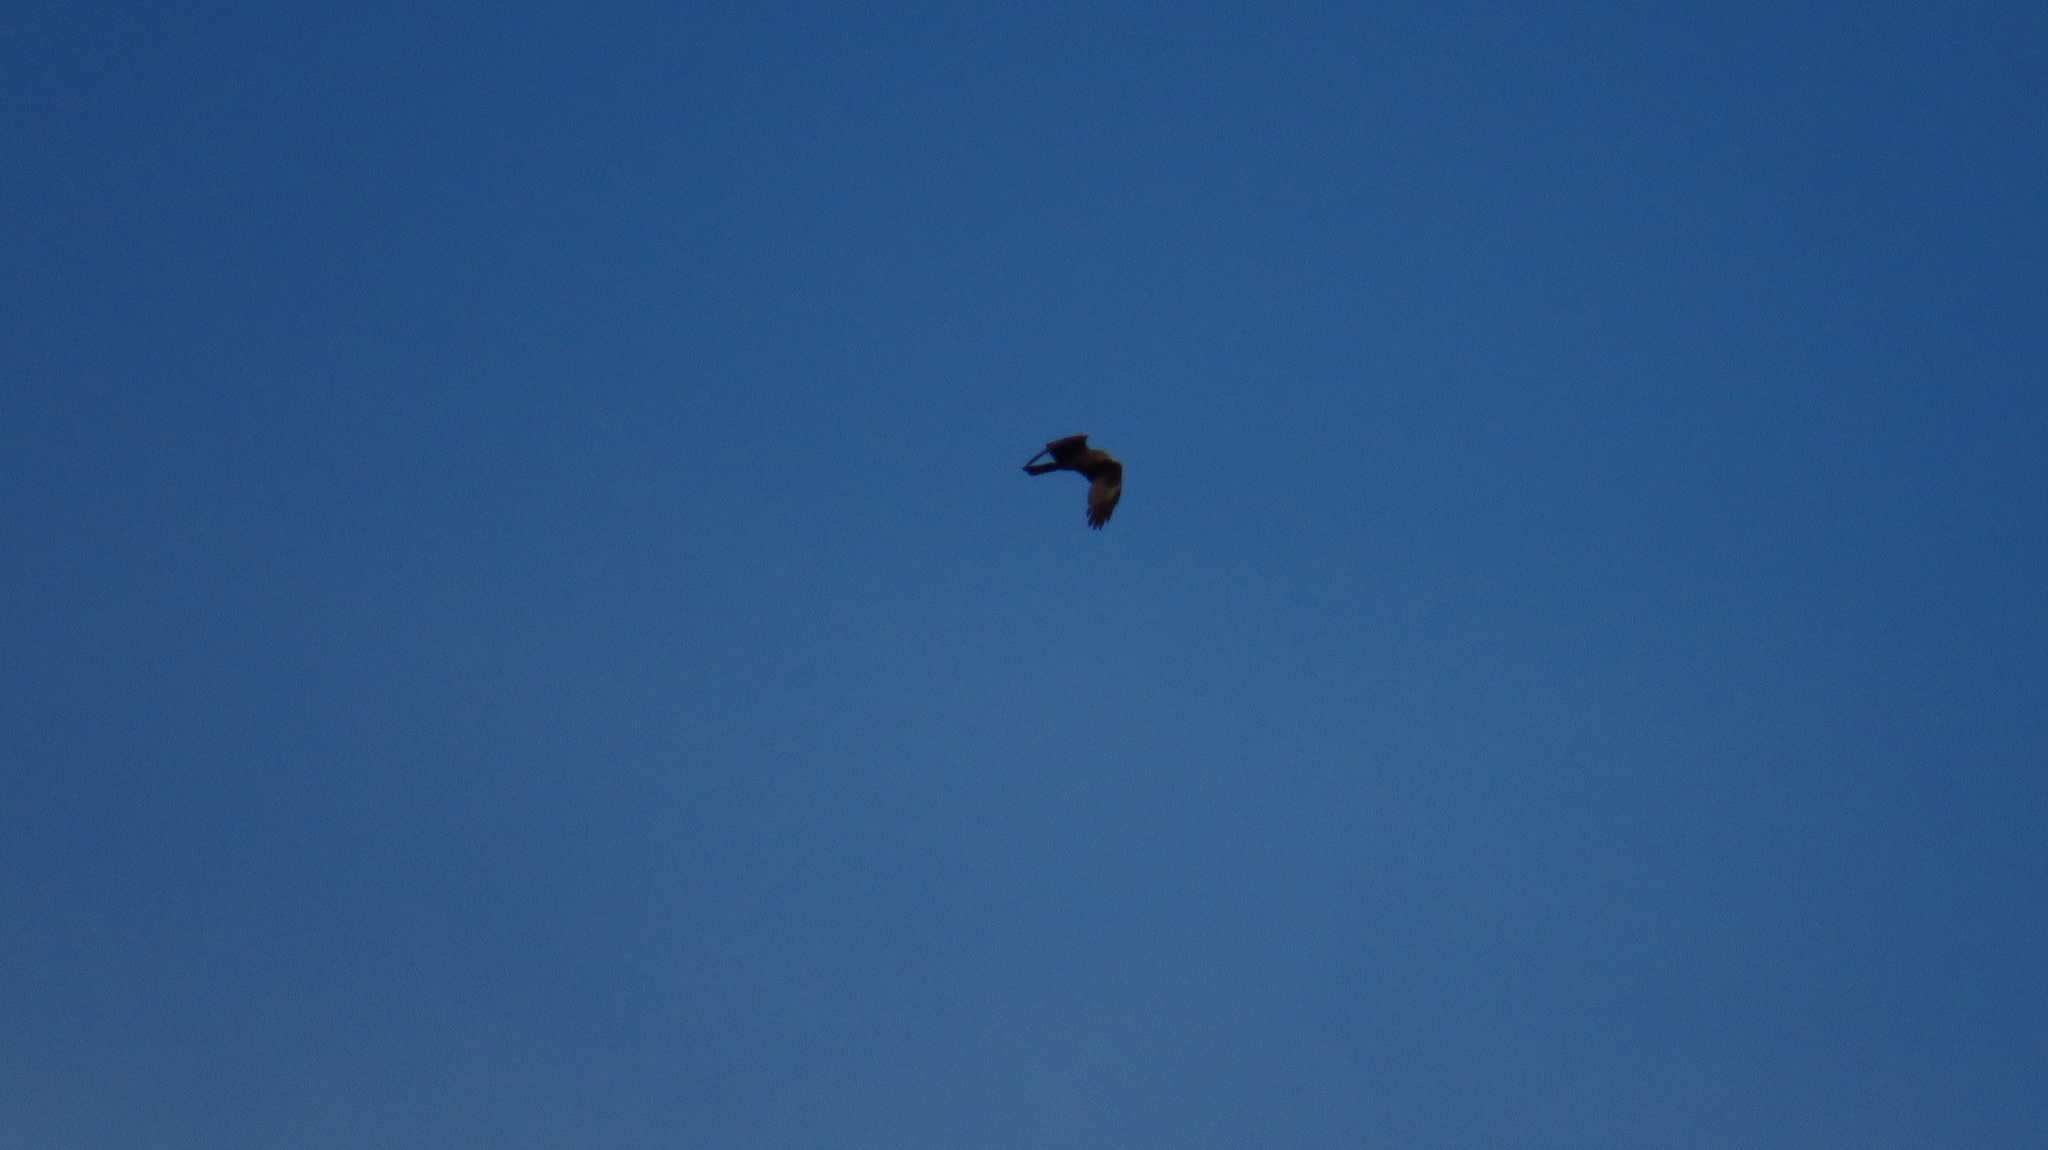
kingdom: Animalia
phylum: Chordata
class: Aves
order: Accipitriformes
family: Accipitridae
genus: Milvus
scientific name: Milvus migrans
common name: Black kite
